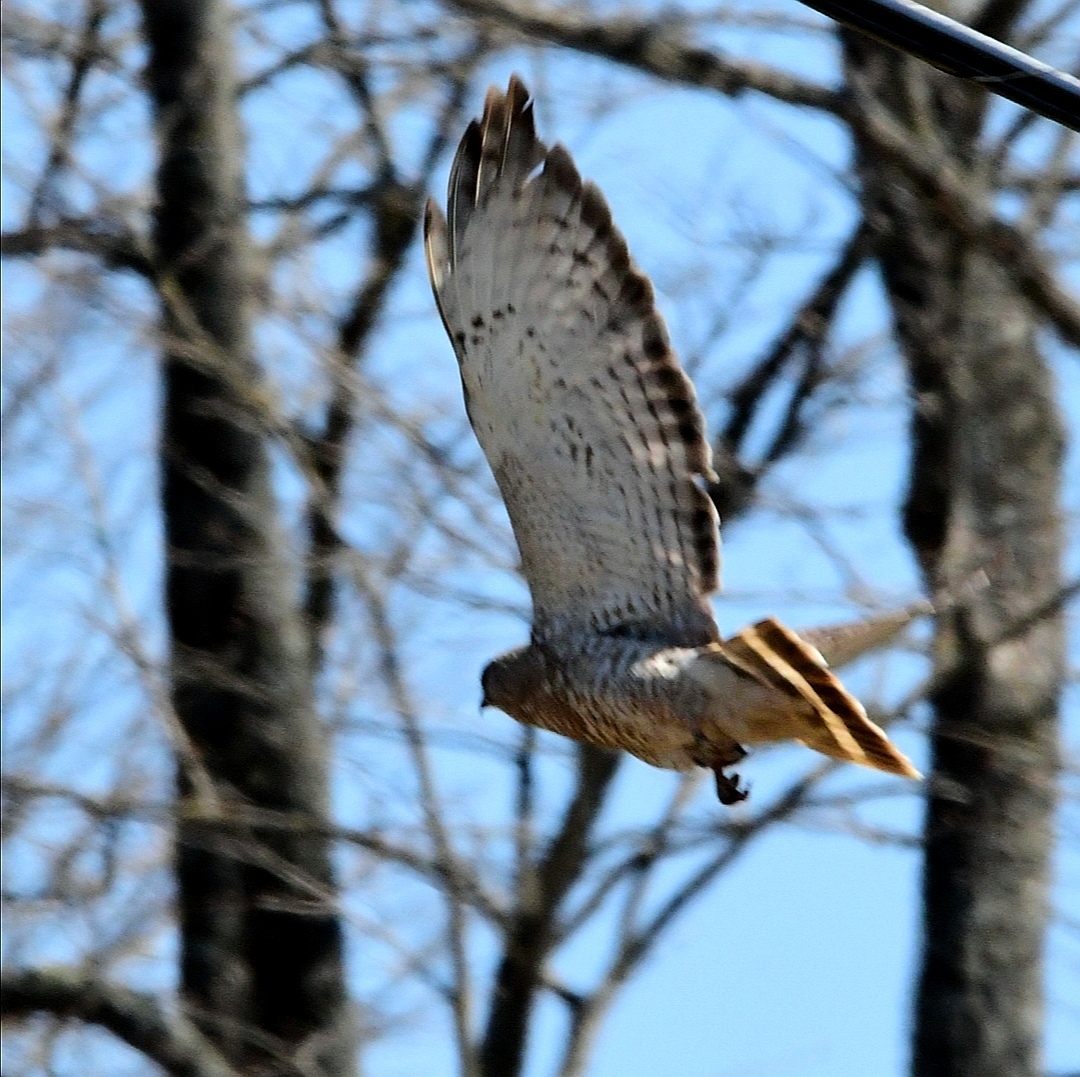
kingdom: Animalia
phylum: Chordata
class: Aves
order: Accipitriformes
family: Accipitridae
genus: Buteo
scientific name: Buteo platypterus
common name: Broad-winged hawk
